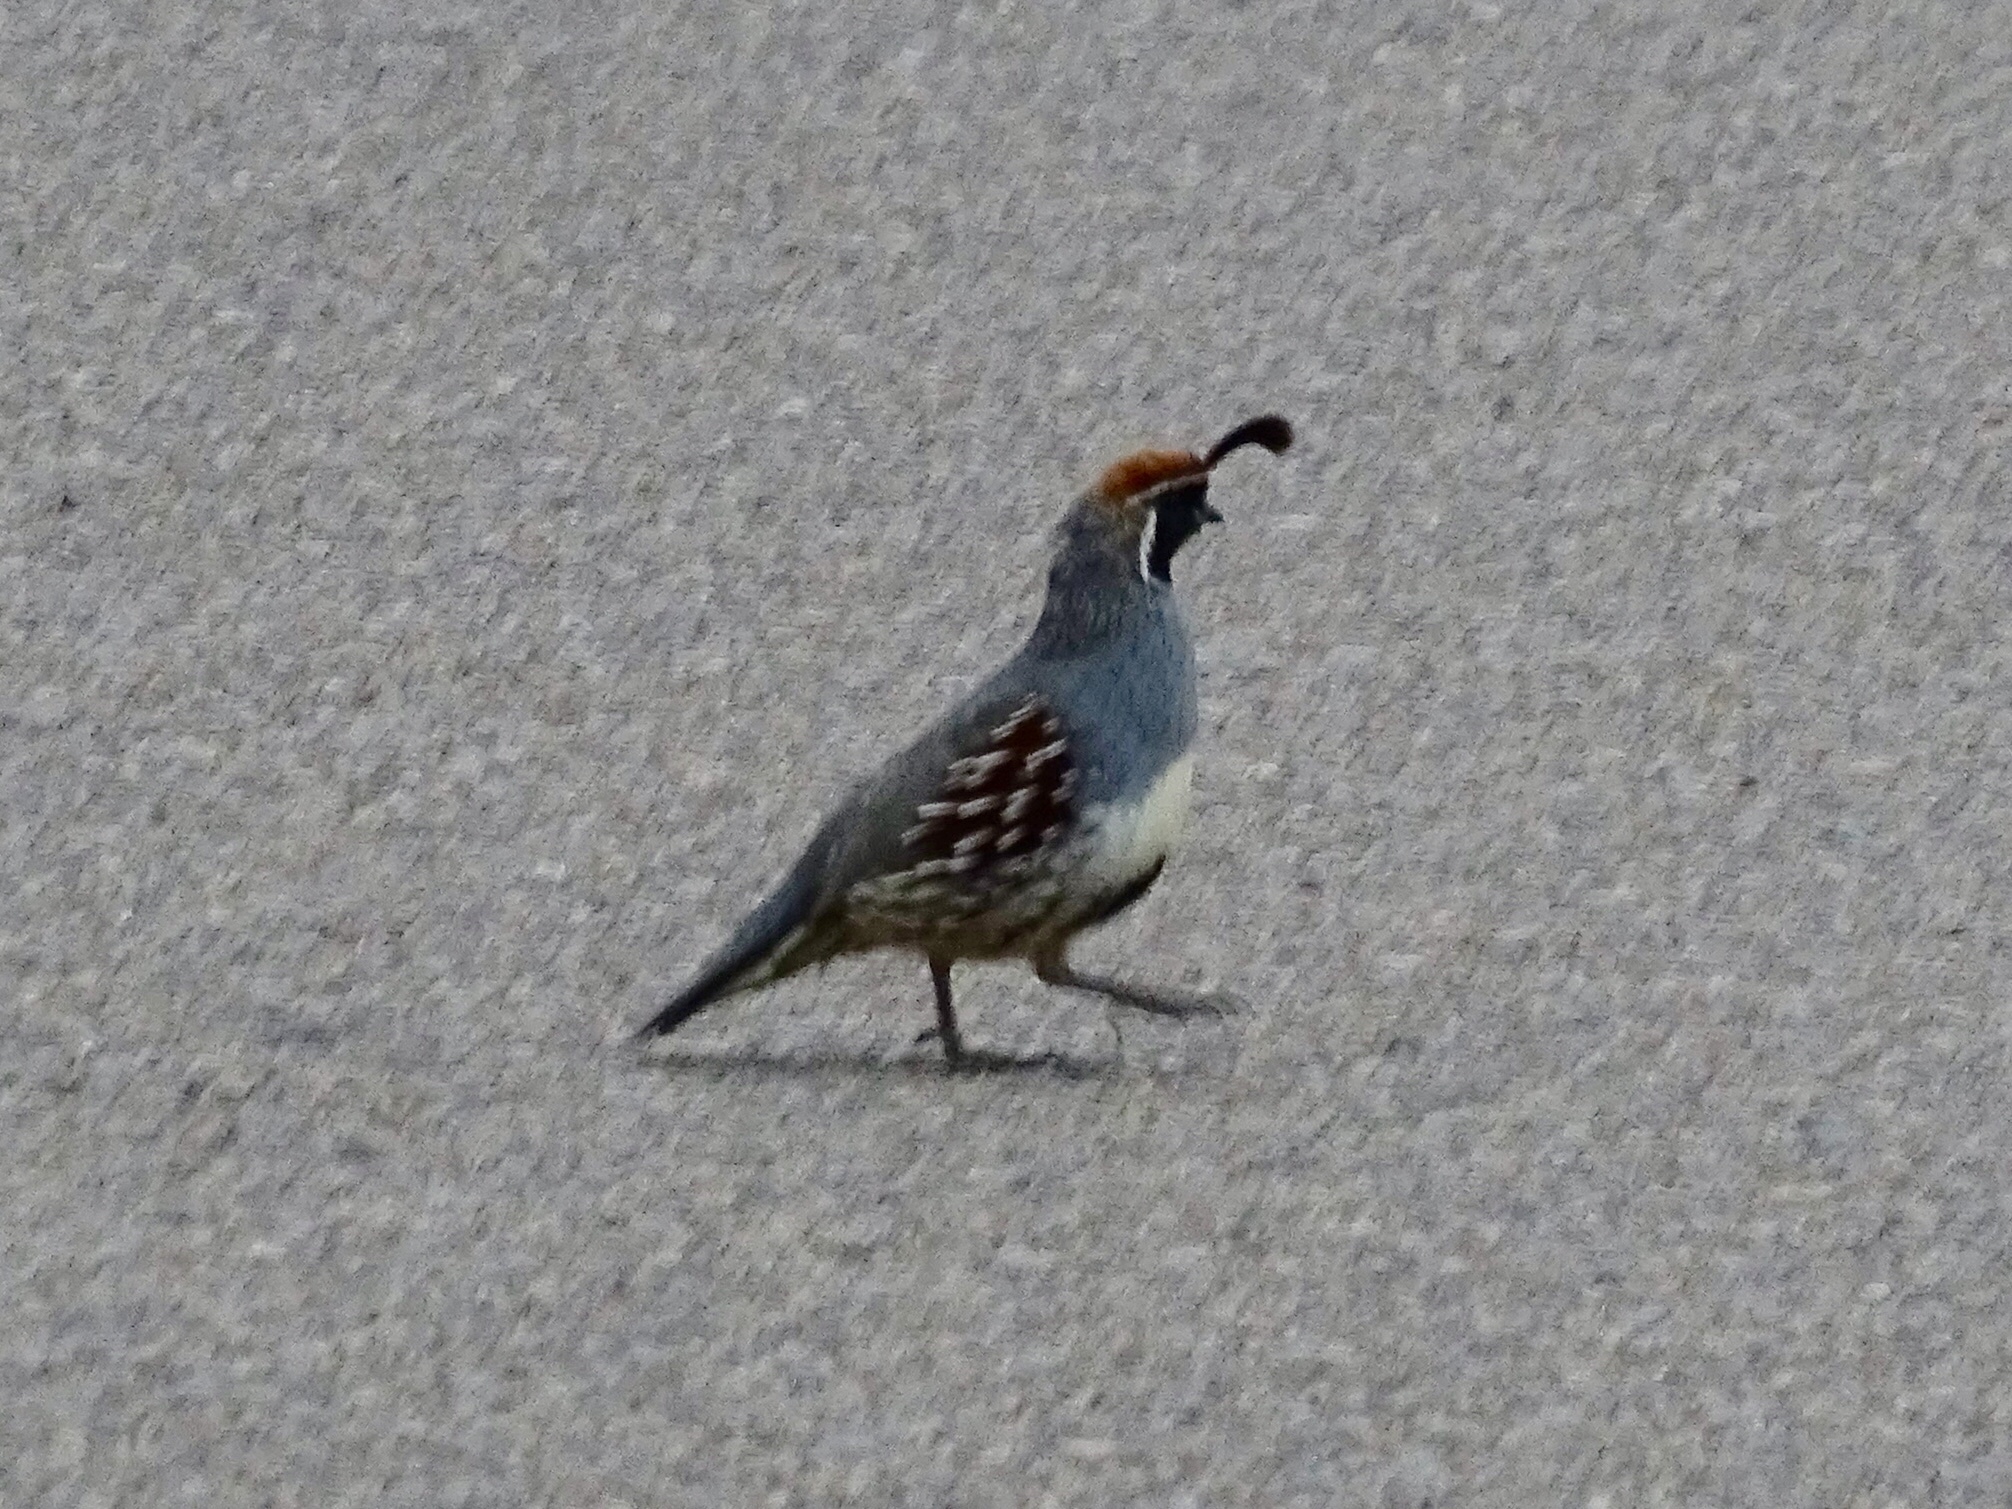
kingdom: Animalia
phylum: Chordata
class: Aves
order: Galliformes
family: Odontophoridae
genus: Callipepla
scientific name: Callipepla gambelii
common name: Gambel's quail
